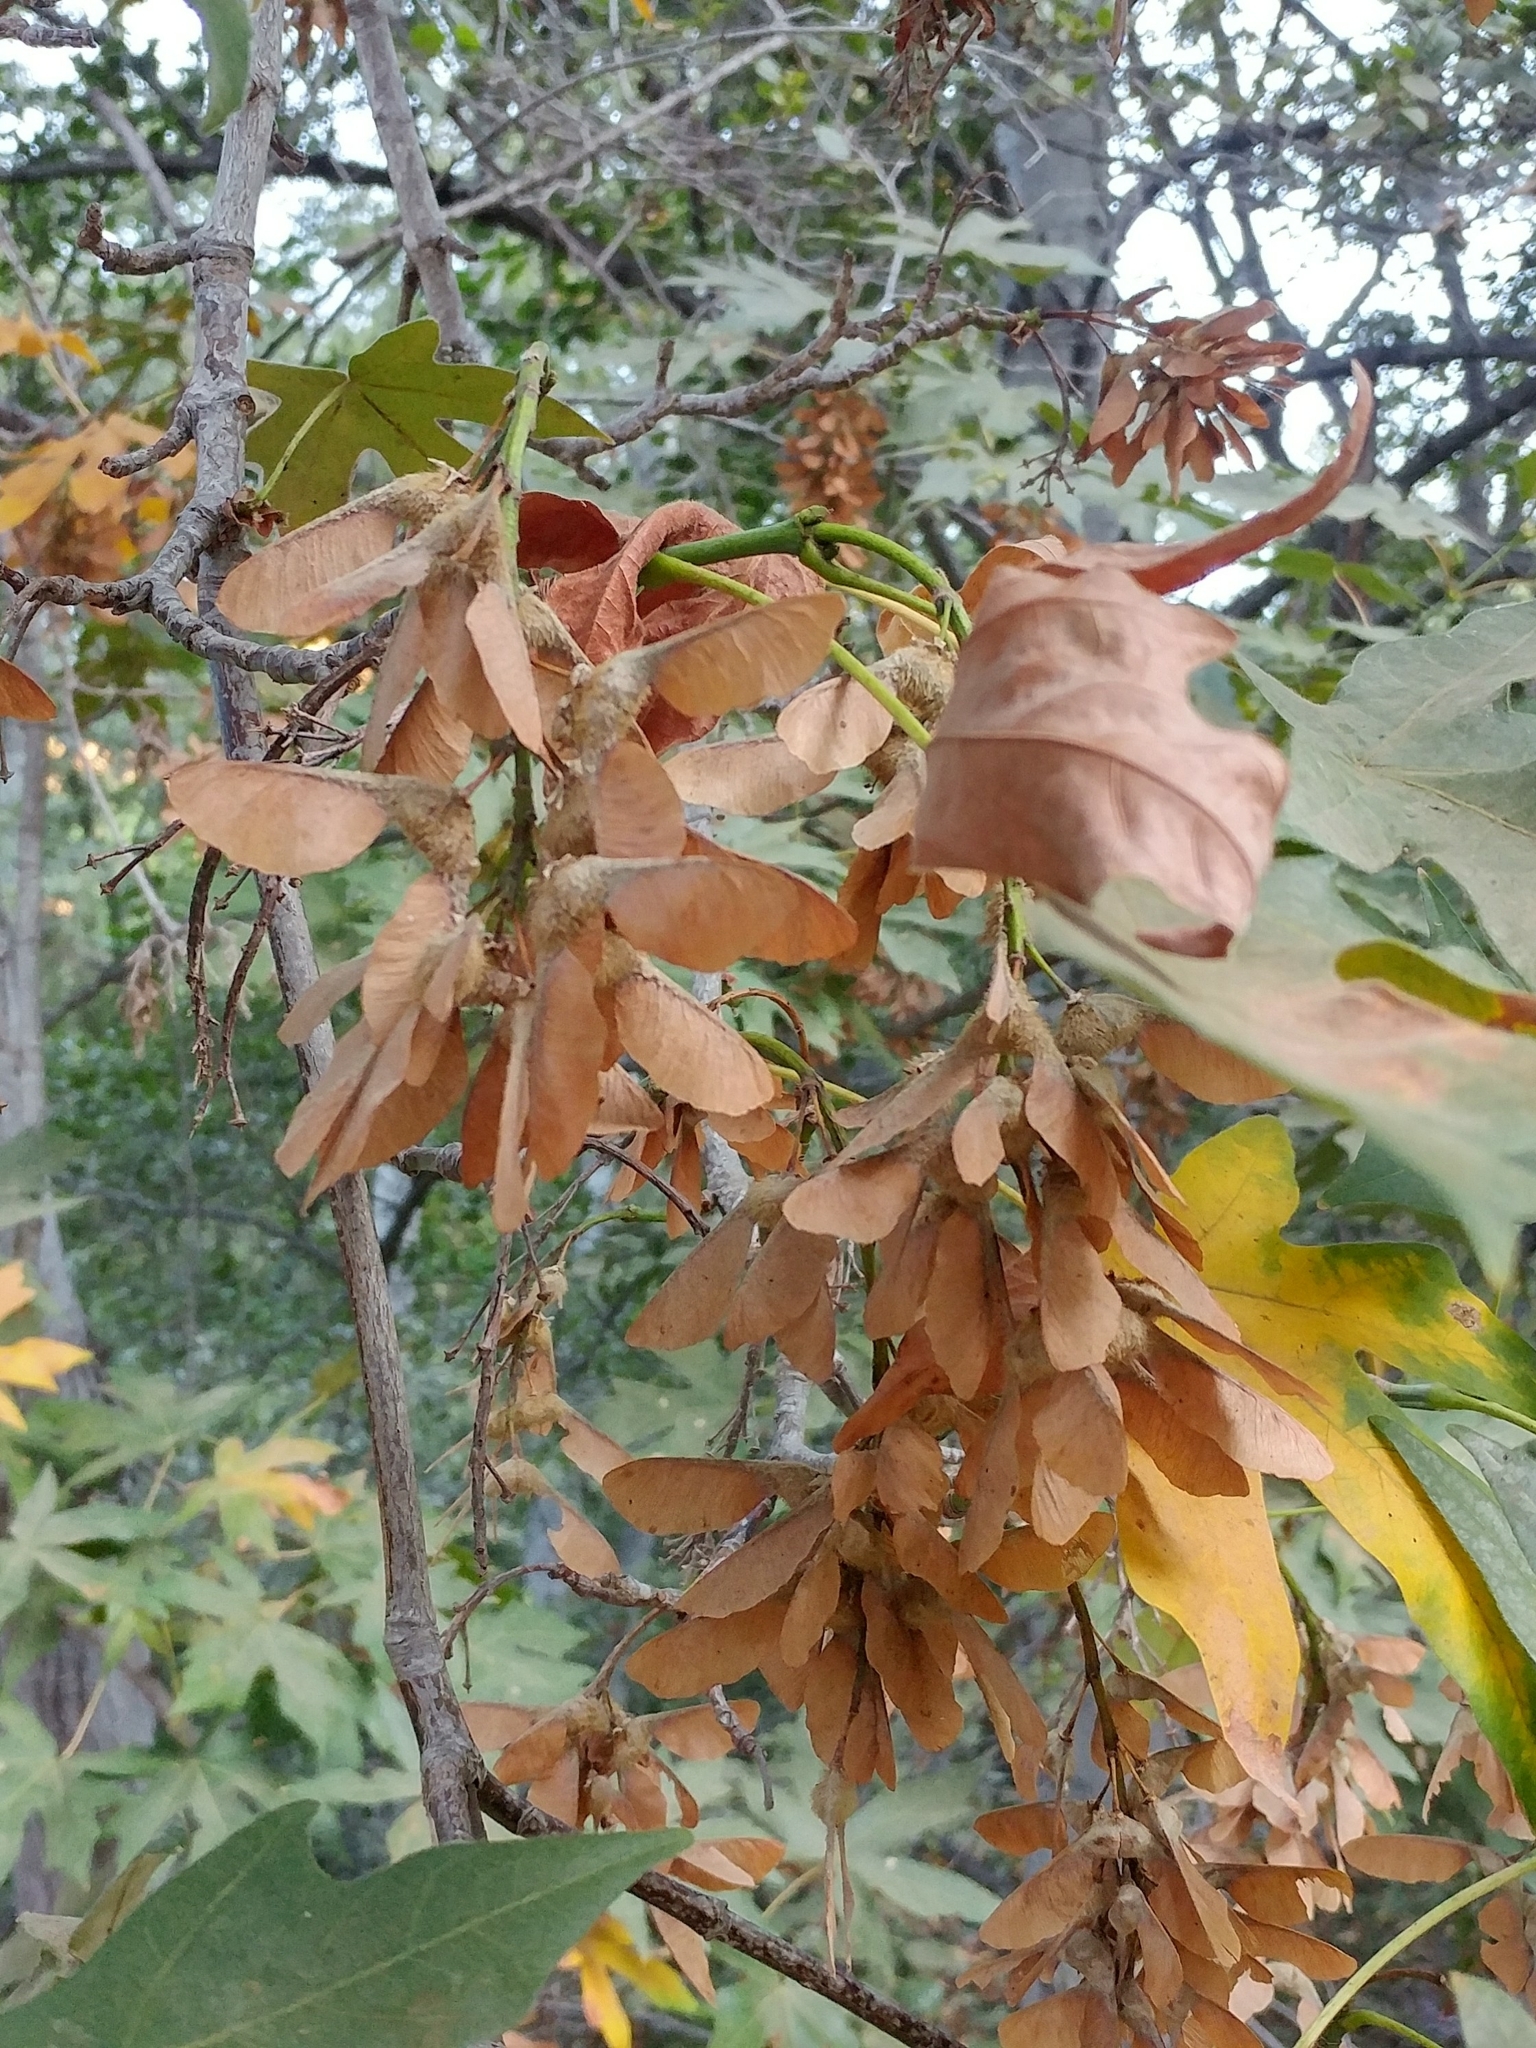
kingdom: Plantae
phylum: Tracheophyta
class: Magnoliopsida
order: Sapindales
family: Sapindaceae
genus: Acer
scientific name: Acer macrophyllum
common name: Oregon maple
